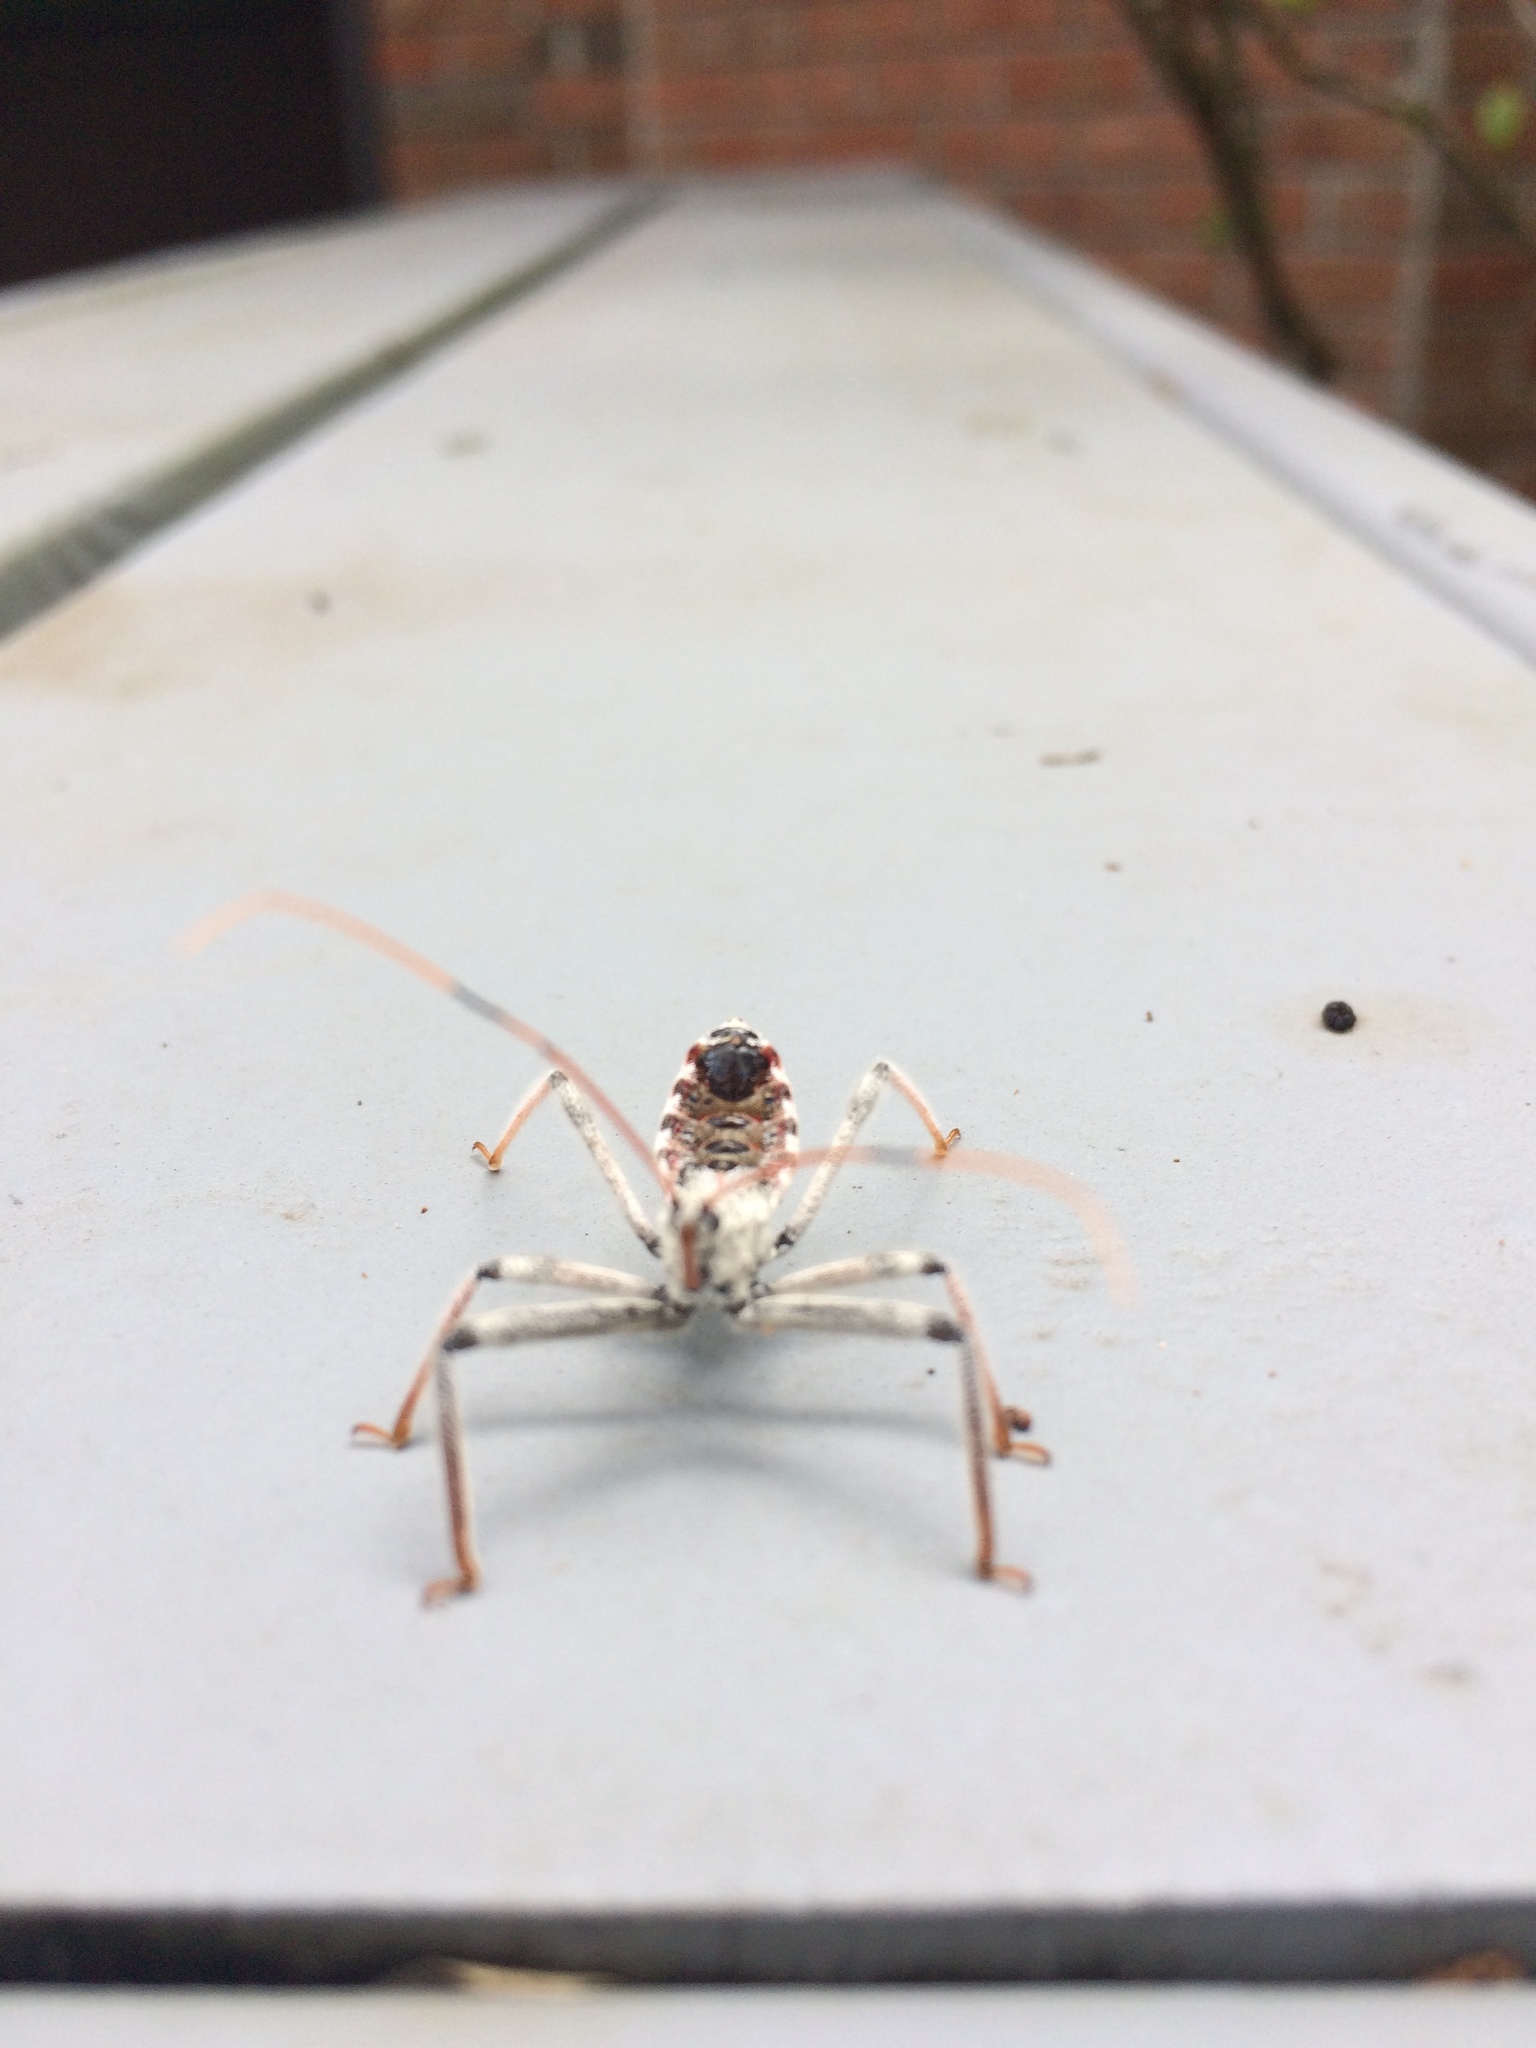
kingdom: Animalia
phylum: Arthropoda
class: Insecta
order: Hemiptera
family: Reduviidae
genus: Arilus
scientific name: Arilus cristatus
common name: North american wheel bug
